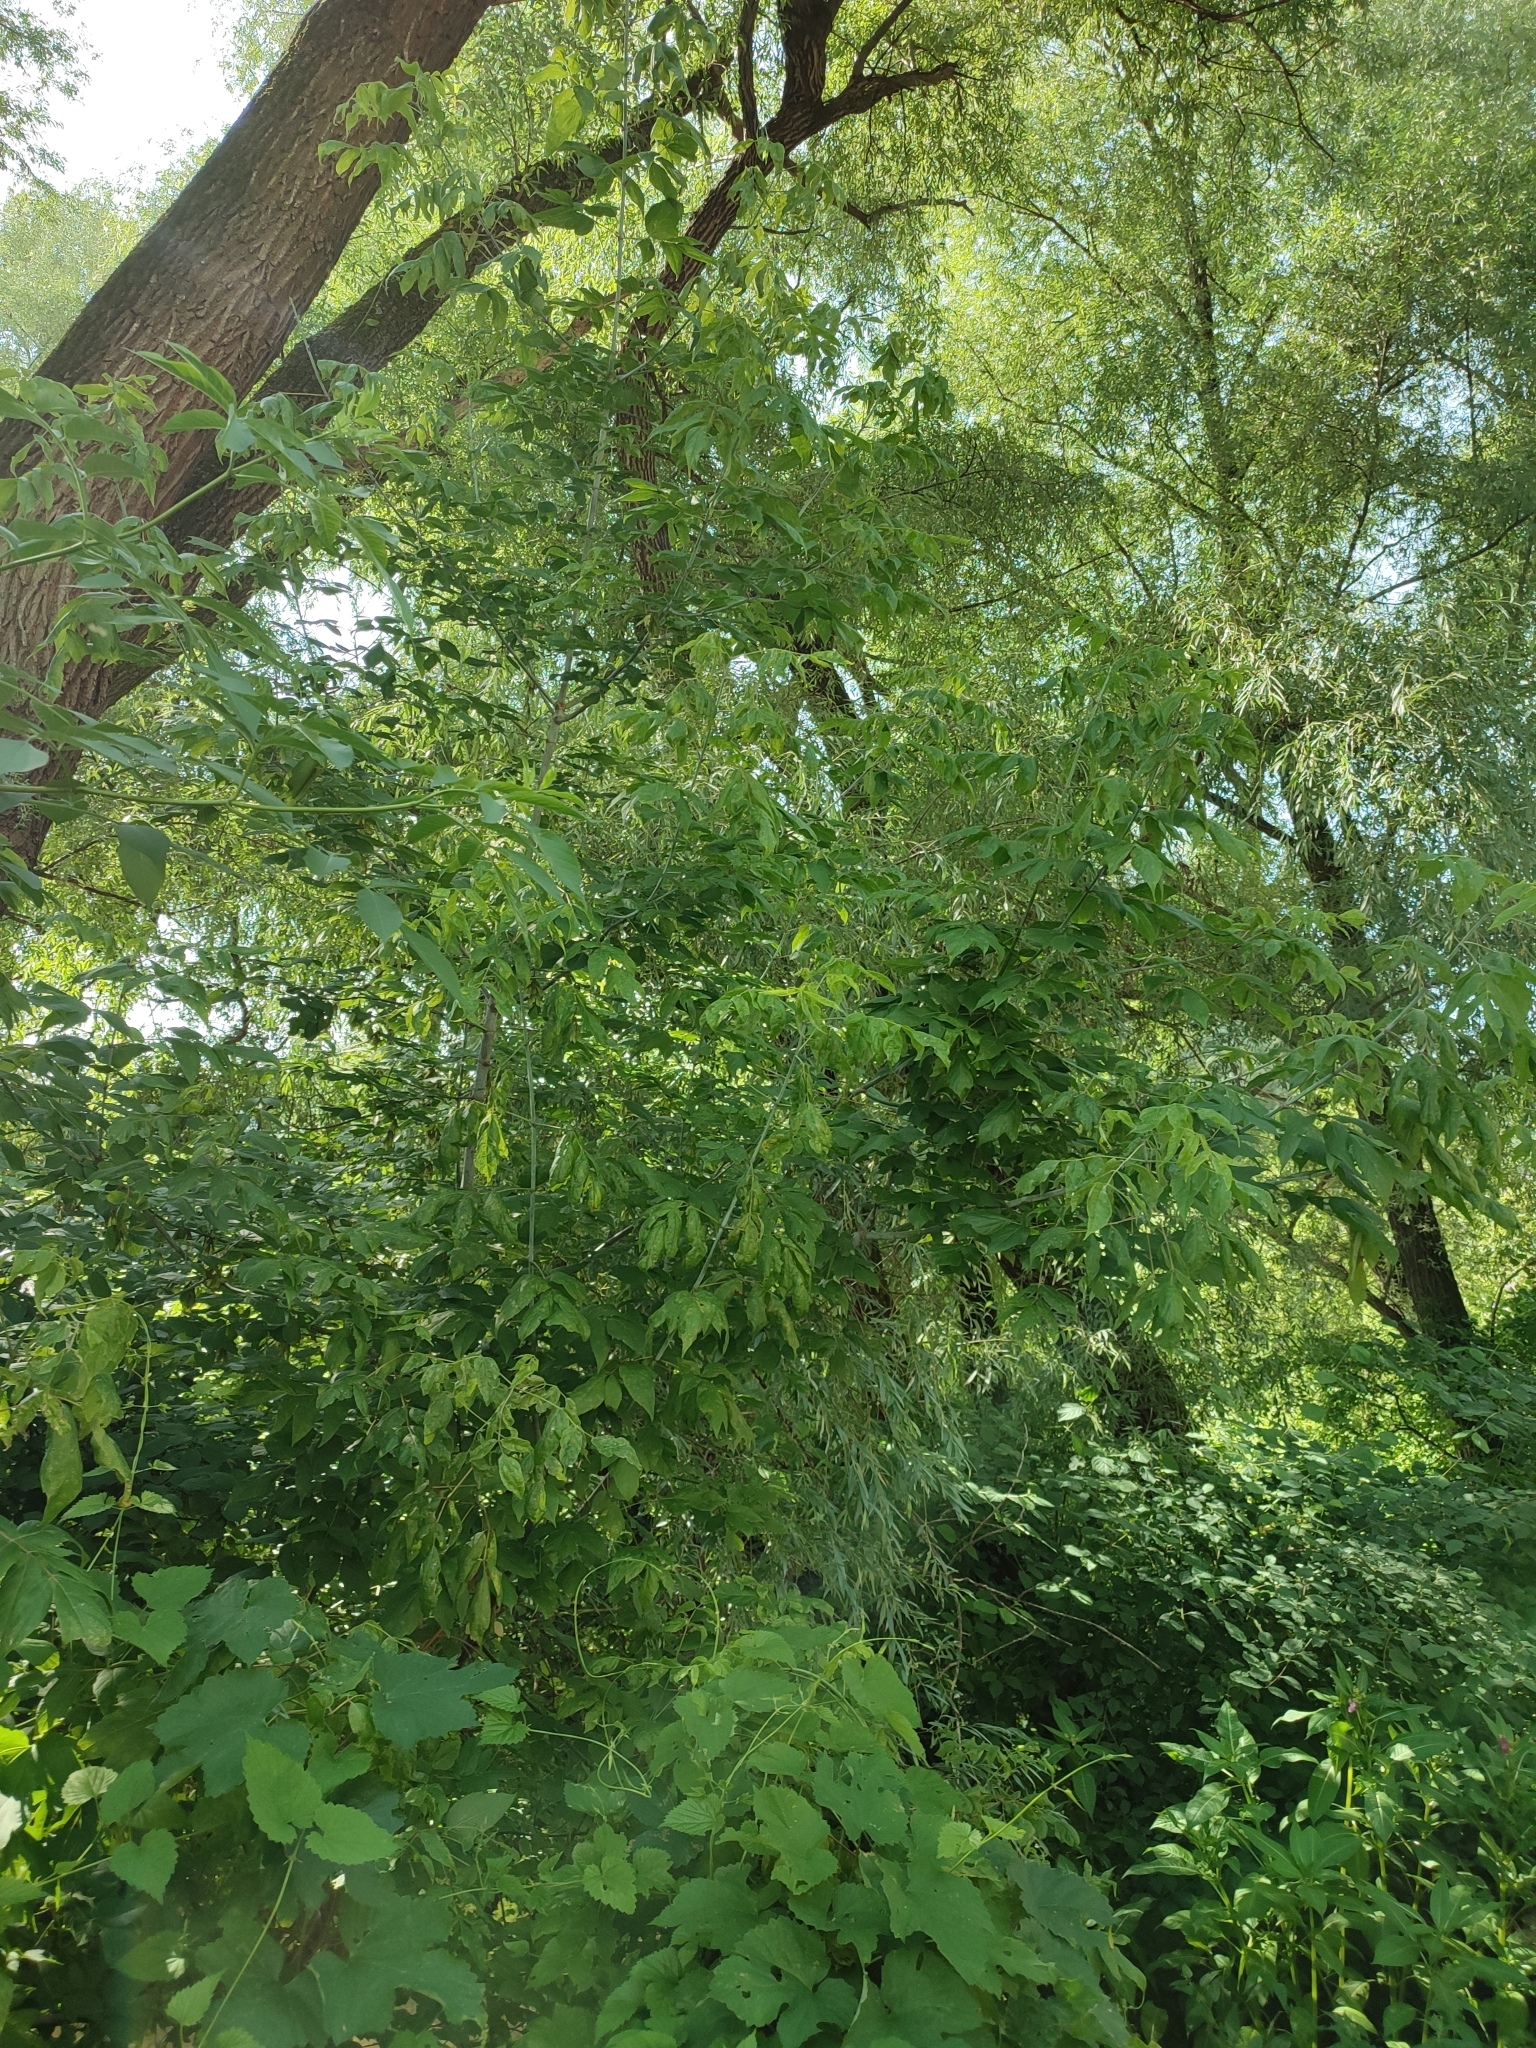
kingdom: Plantae
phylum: Tracheophyta
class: Magnoliopsida
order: Sapindales
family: Sapindaceae
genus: Acer
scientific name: Acer negundo
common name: Ashleaf maple
